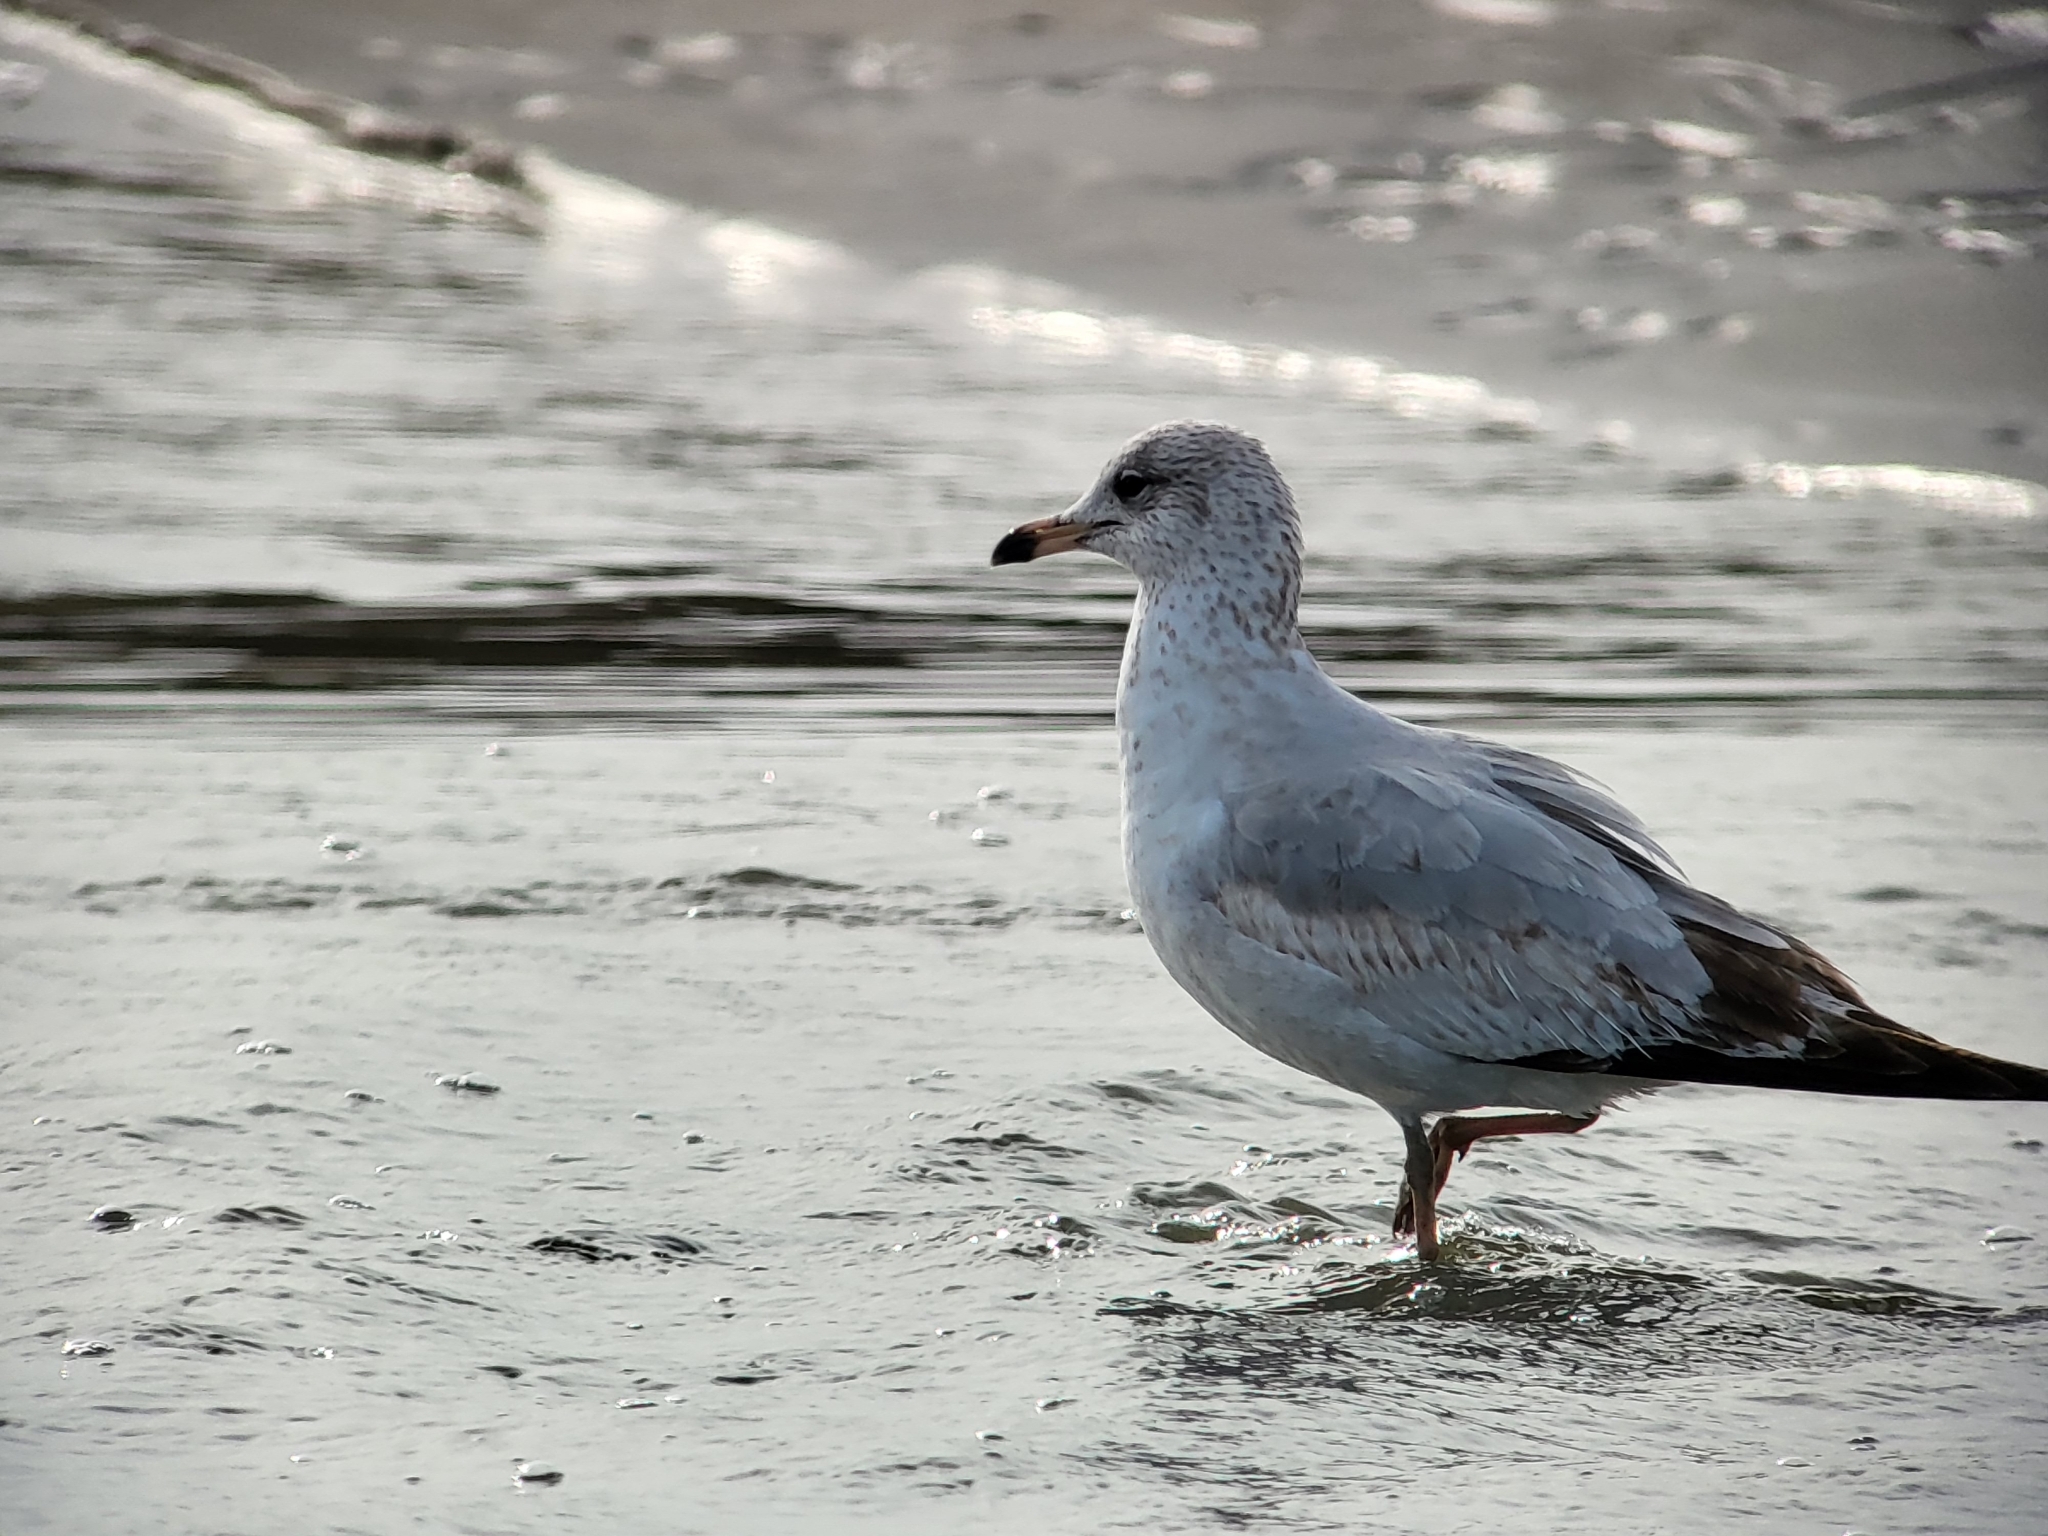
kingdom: Animalia
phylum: Chordata
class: Aves
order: Charadriiformes
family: Laridae
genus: Larus
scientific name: Larus delawarensis
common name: Ring-billed gull
